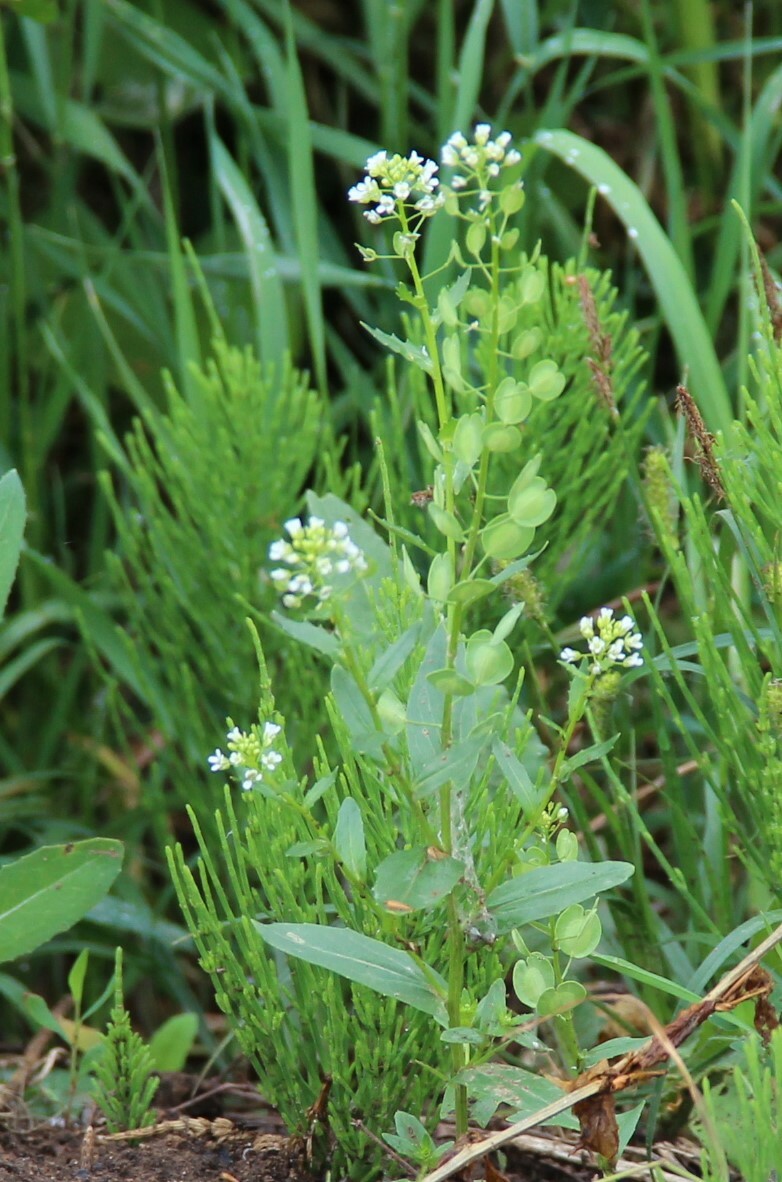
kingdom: Plantae
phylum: Tracheophyta
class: Magnoliopsida
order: Brassicales
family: Brassicaceae
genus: Thlaspi
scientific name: Thlaspi arvense
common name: Field pennycress
